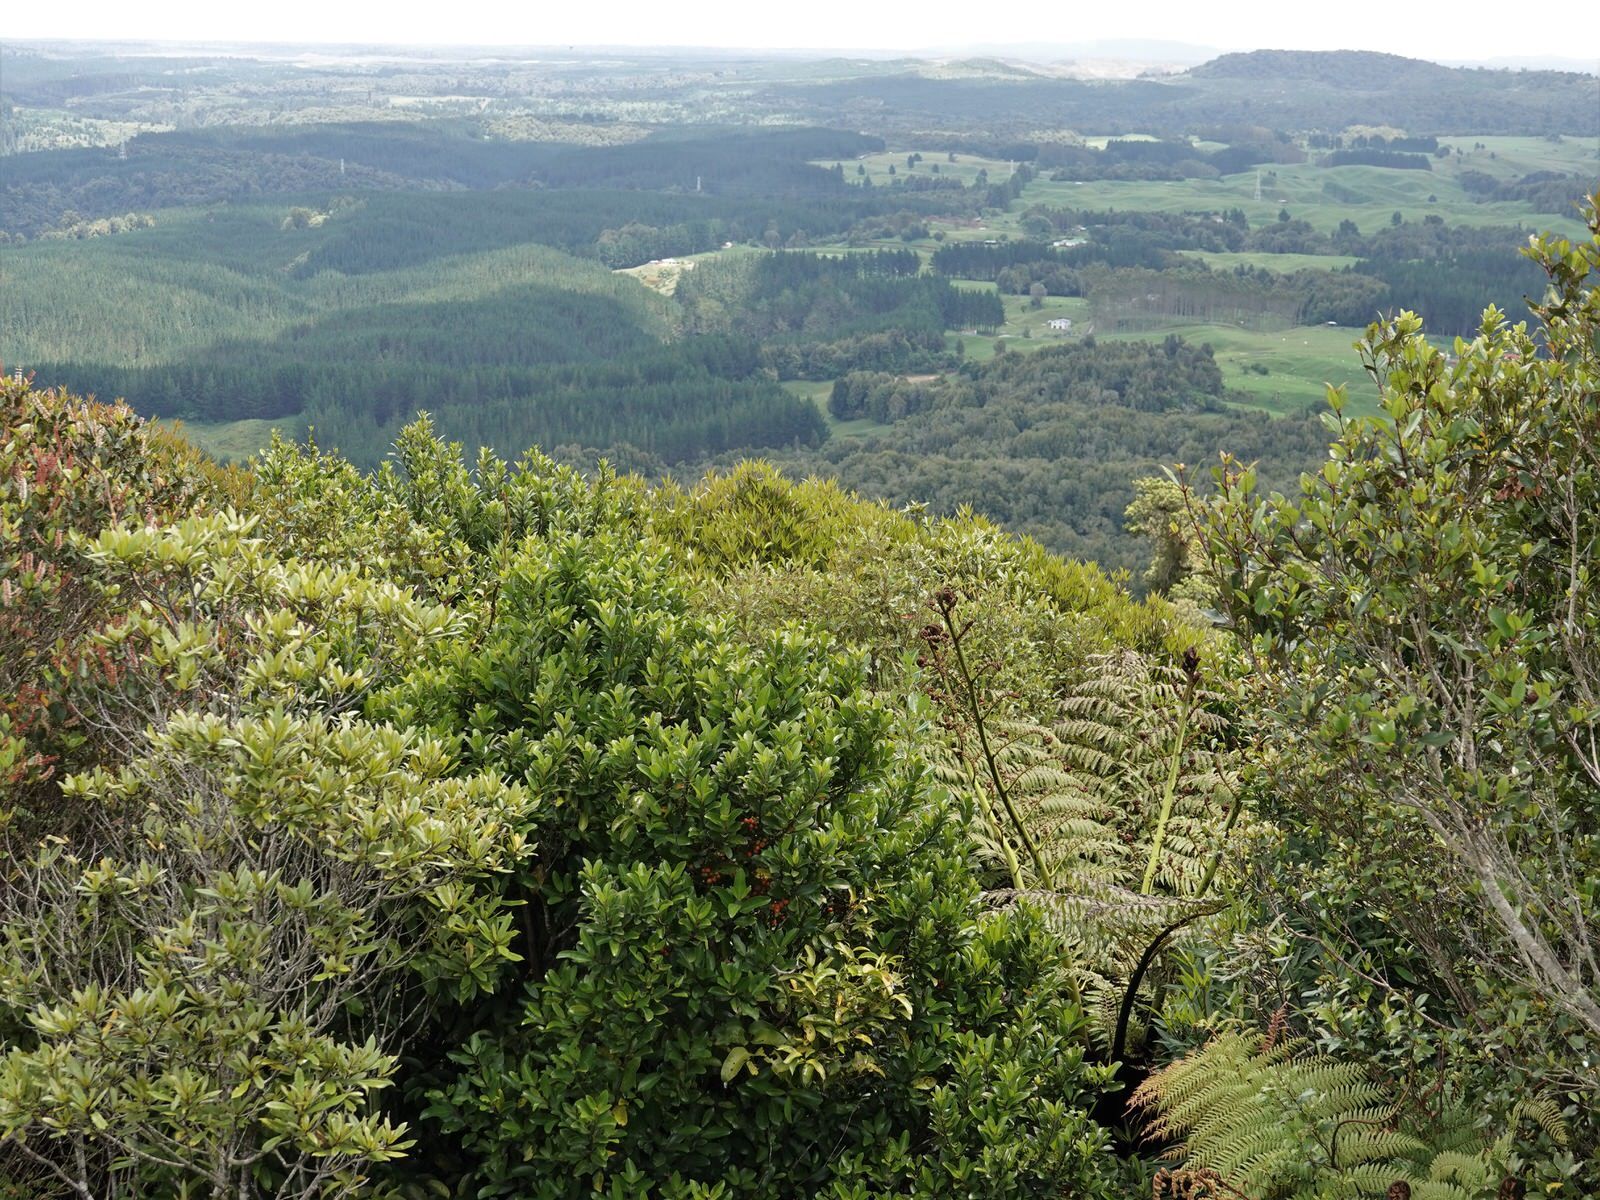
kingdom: Plantae
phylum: Tracheophyta
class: Magnoliopsida
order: Laurales
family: Monimiaceae
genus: Hedycarya
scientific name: Hedycarya arborea
